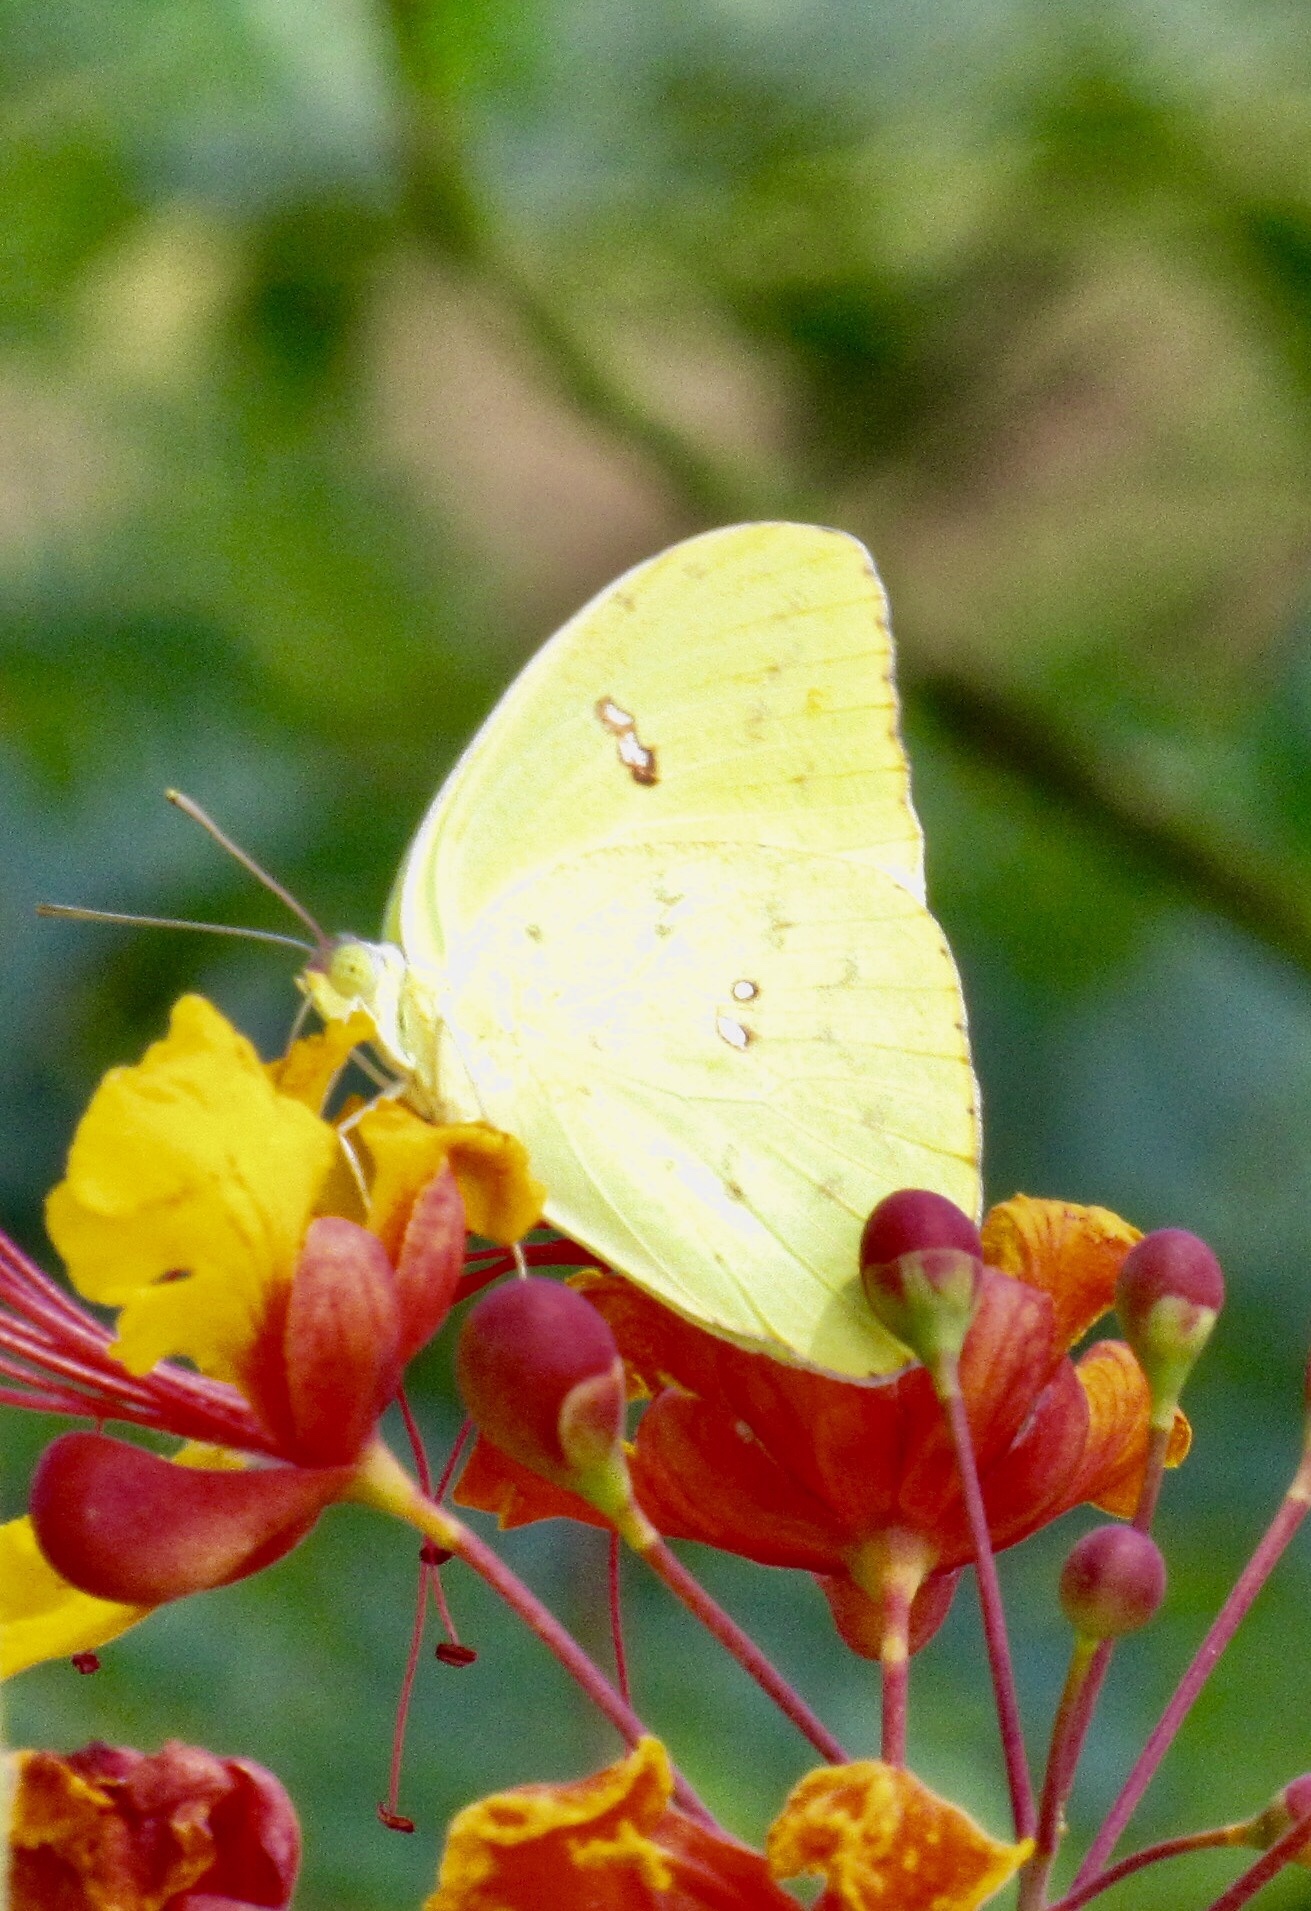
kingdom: Animalia
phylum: Arthropoda
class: Insecta
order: Lepidoptera
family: Pieridae
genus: Phoebis
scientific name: Phoebis sennae
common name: Cloudless sulphur
